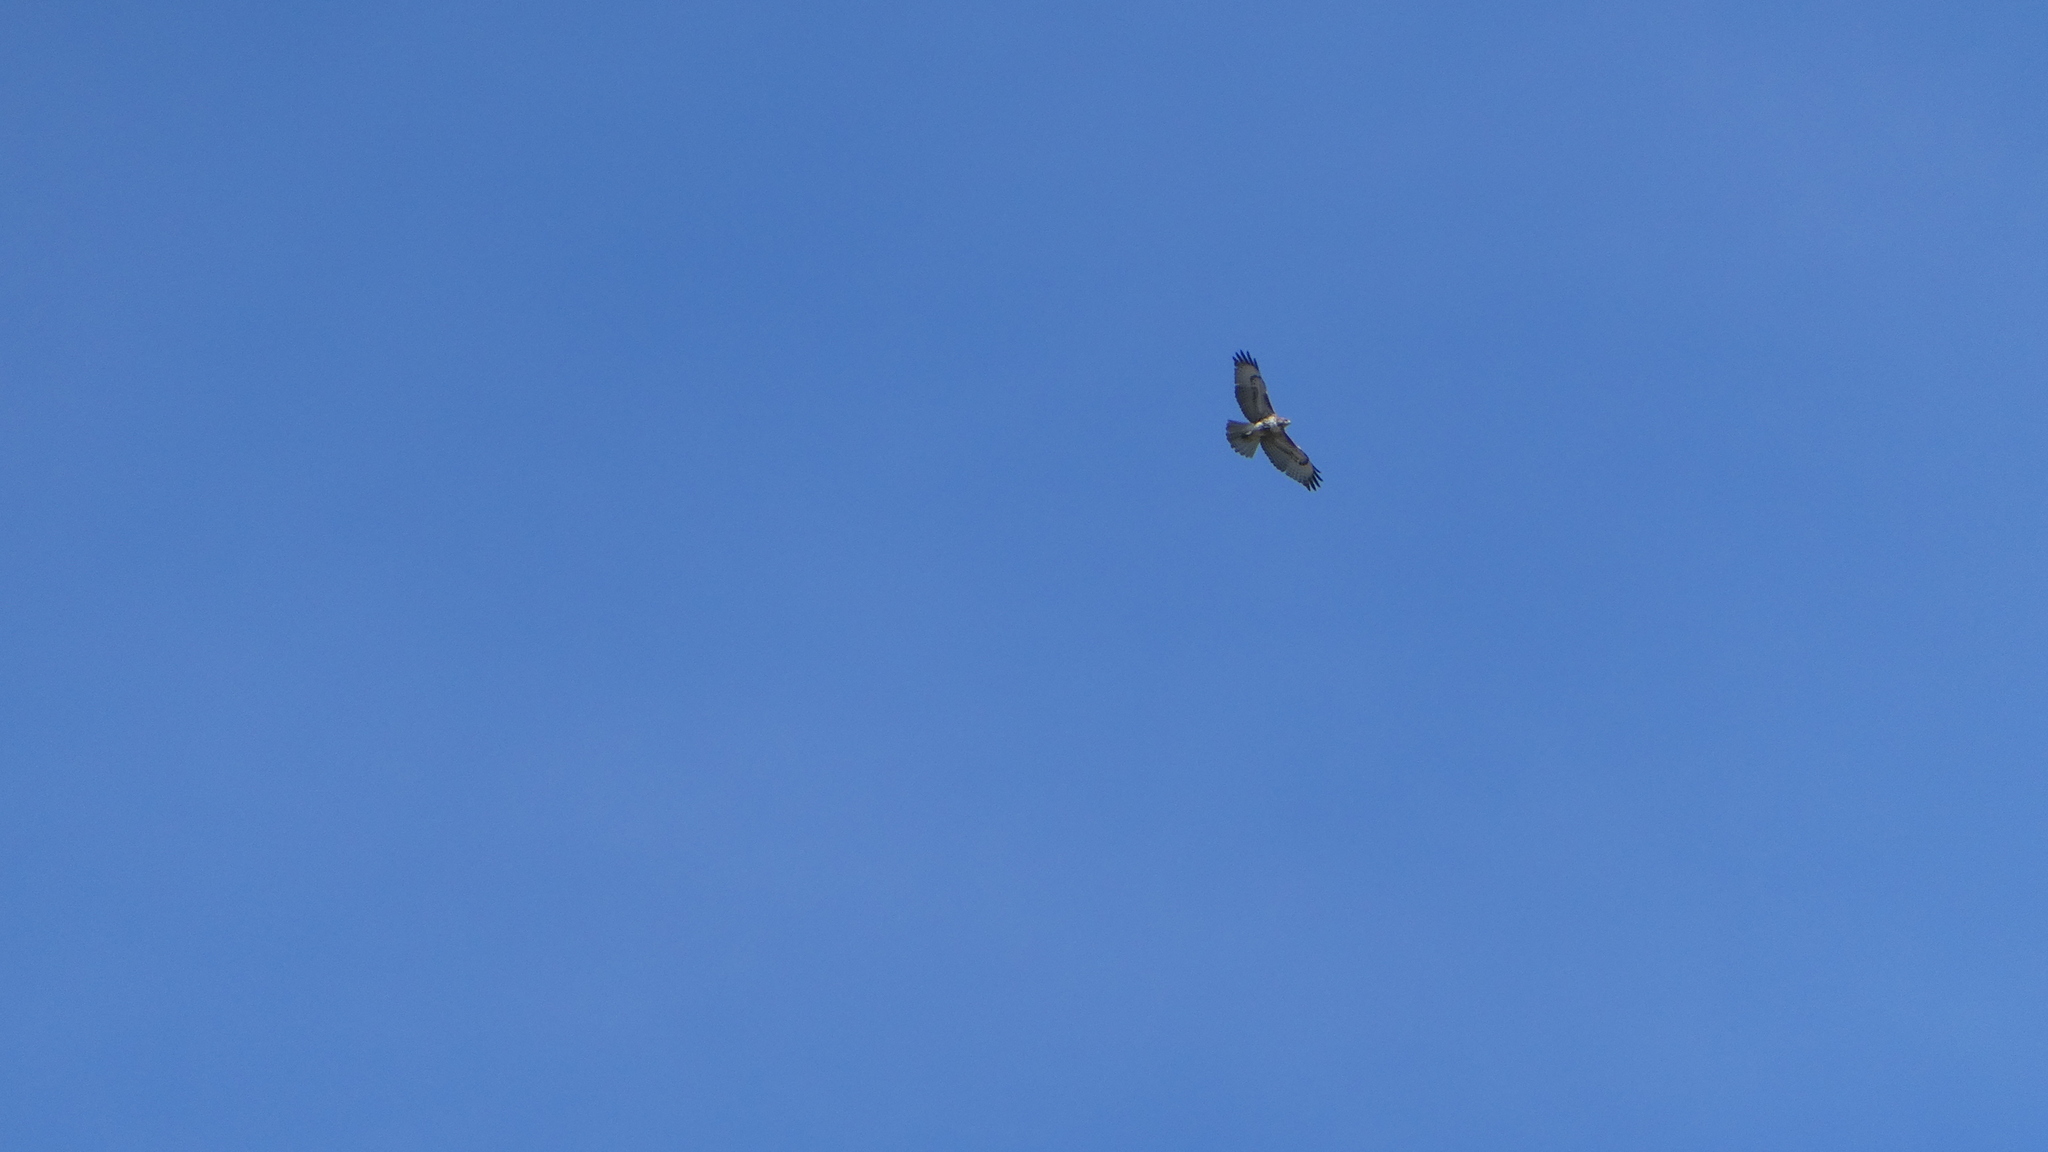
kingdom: Animalia
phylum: Chordata
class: Aves
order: Accipitriformes
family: Accipitridae
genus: Buteo
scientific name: Buteo jamaicensis
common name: Red-tailed hawk
